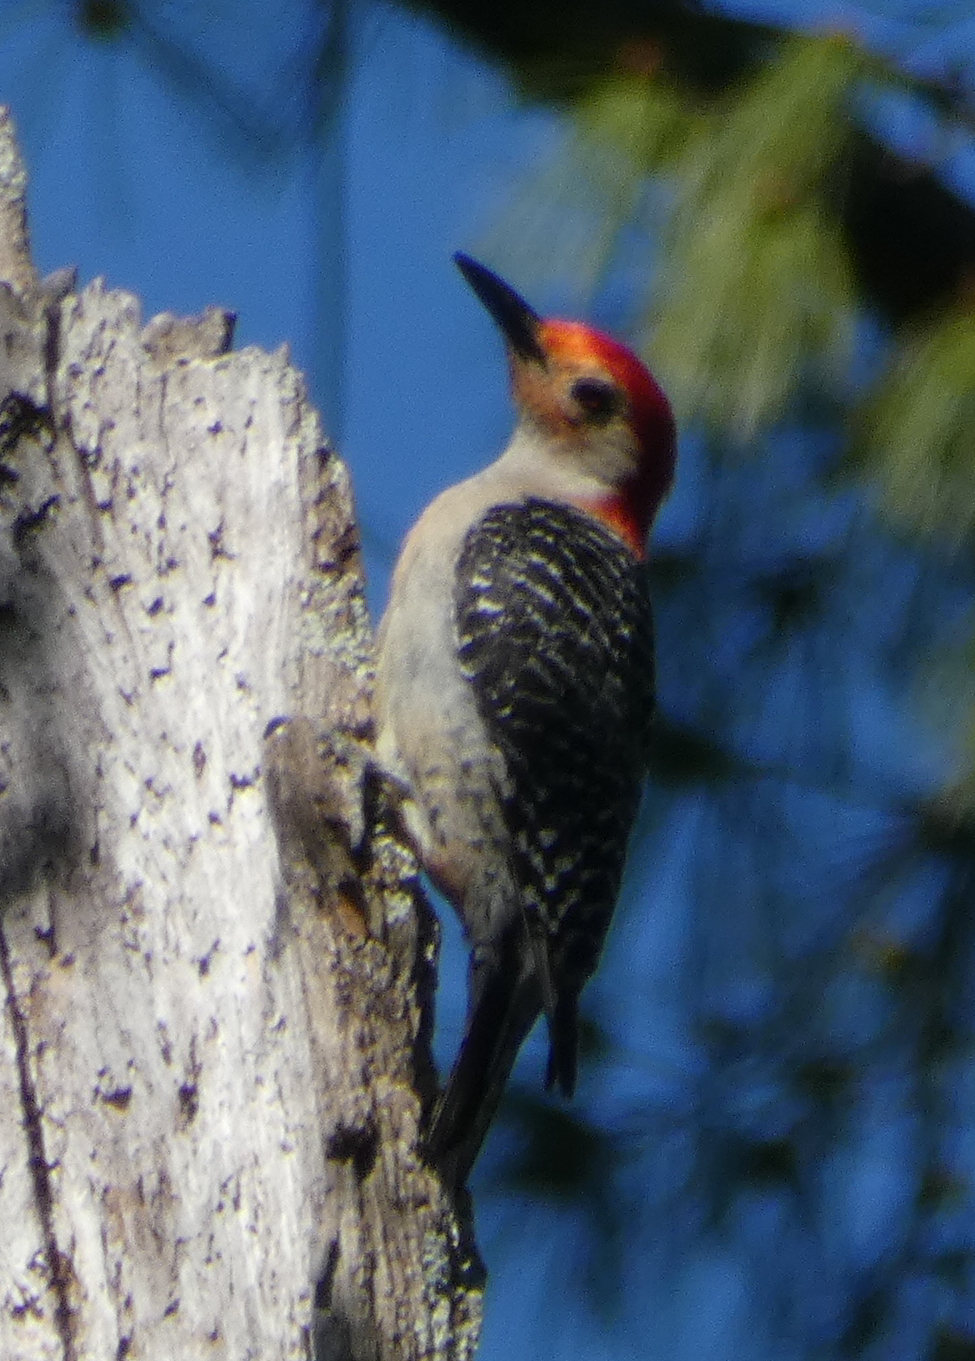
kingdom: Animalia
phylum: Chordata
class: Aves
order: Piciformes
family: Picidae
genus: Melanerpes
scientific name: Melanerpes carolinus
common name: Red-bellied woodpecker
